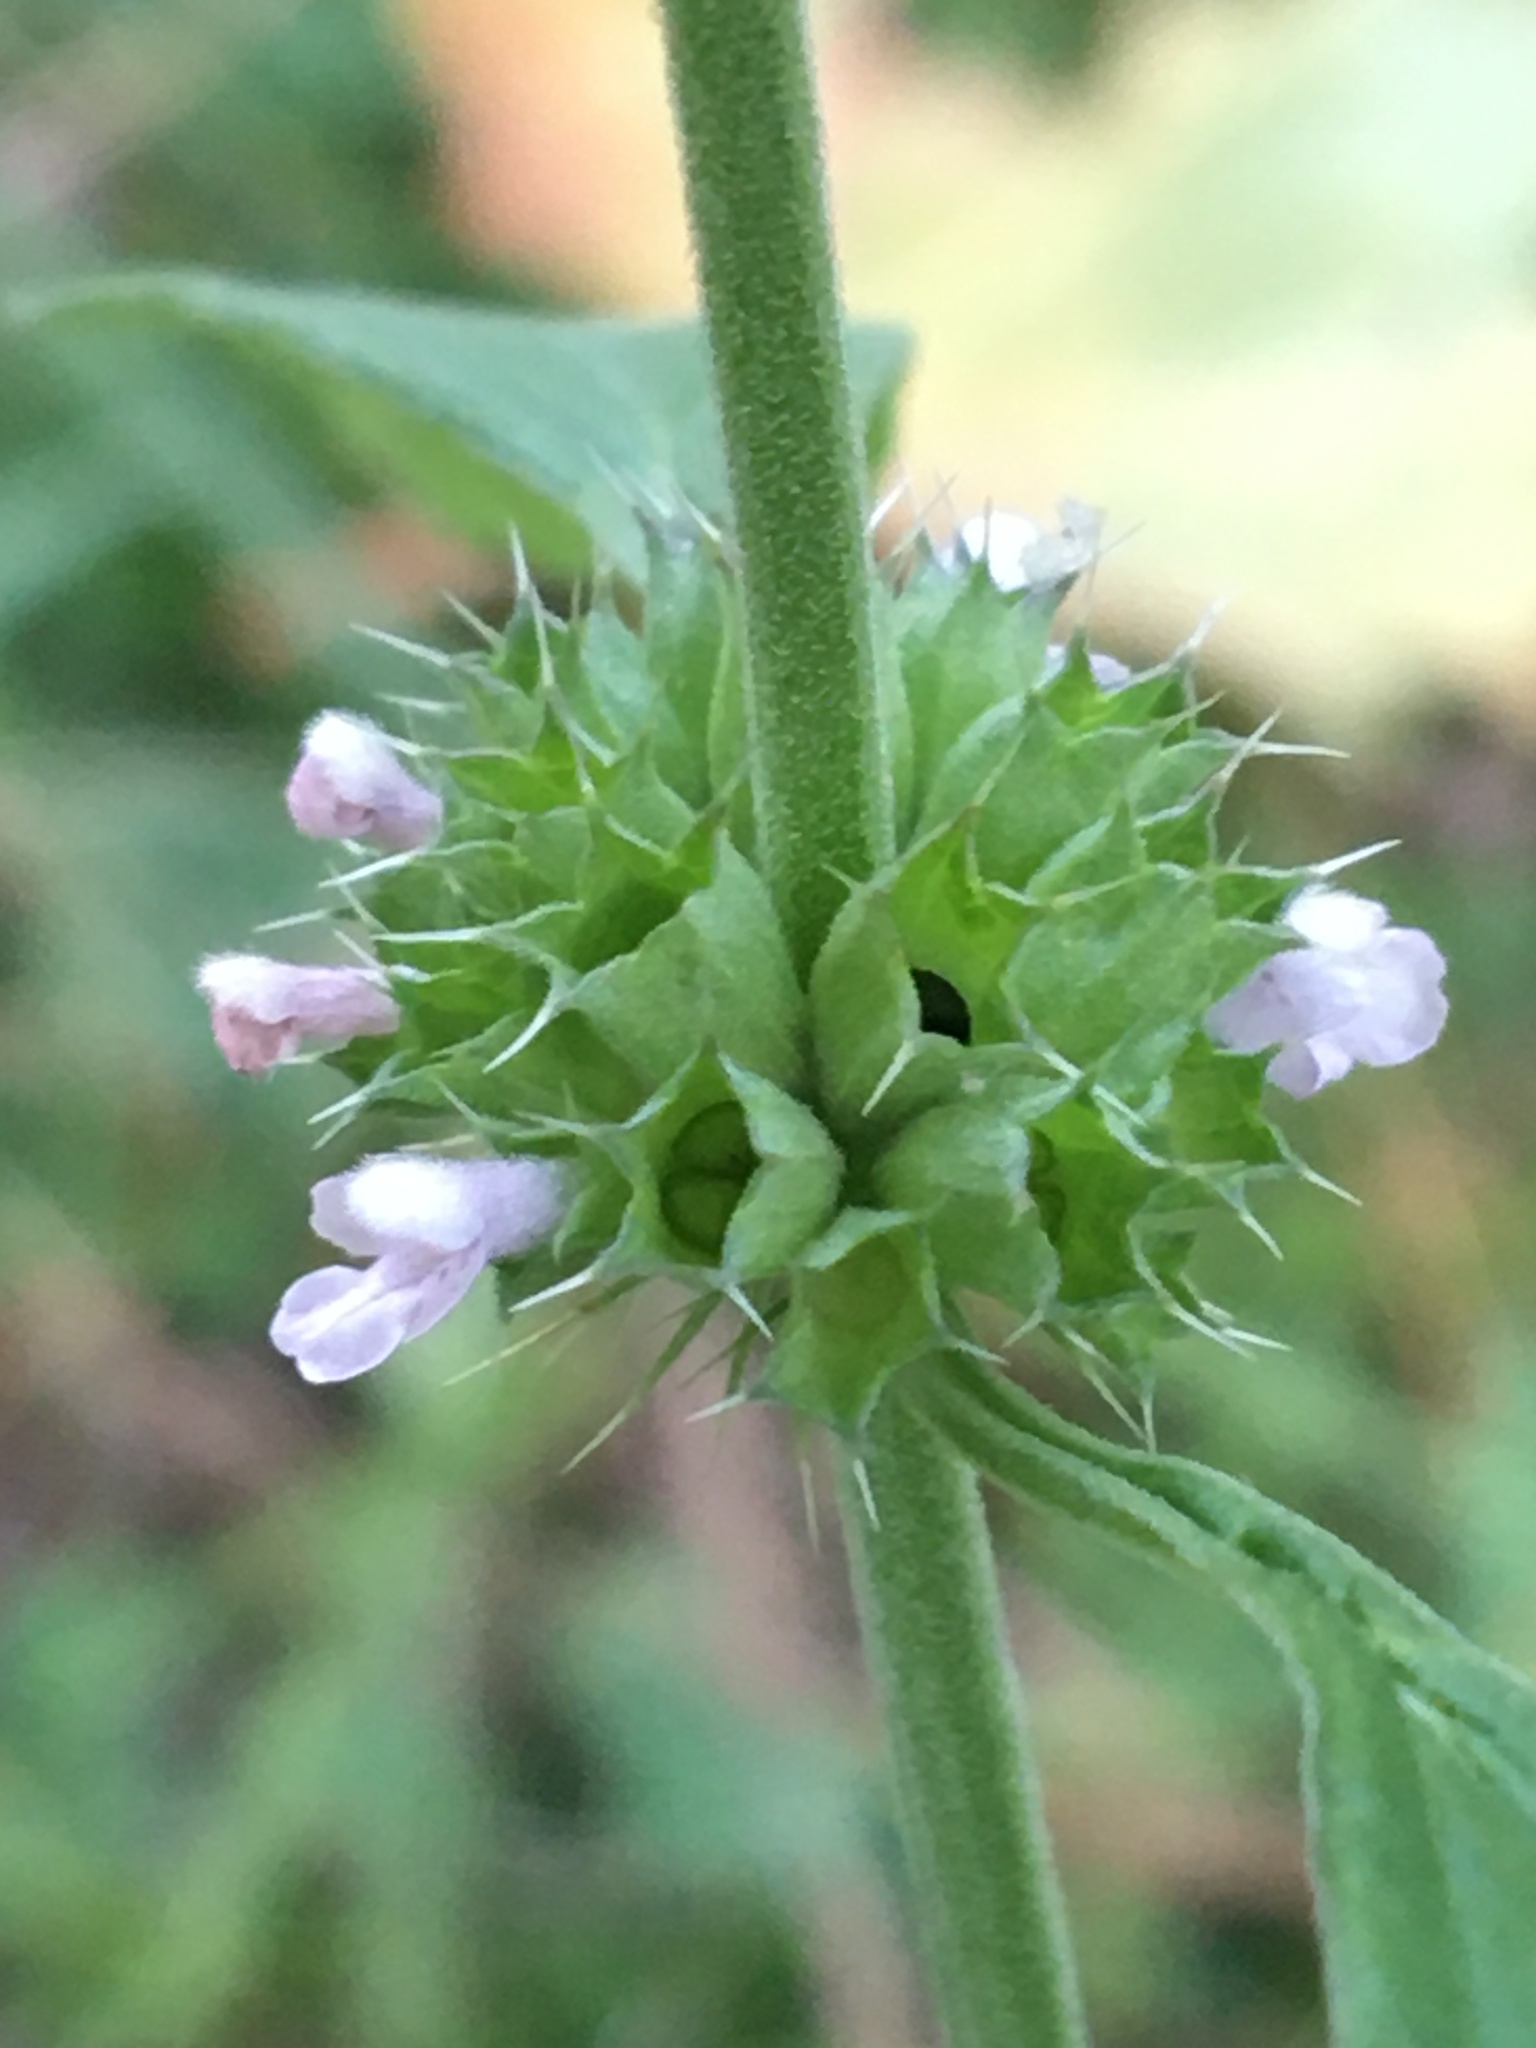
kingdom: Plantae
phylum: Tracheophyta
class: Magnoliopsida
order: Lamiales
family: Lamiaceae
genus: Chaiturus
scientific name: Chaiturus marrubiastrum
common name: Lion's tail
